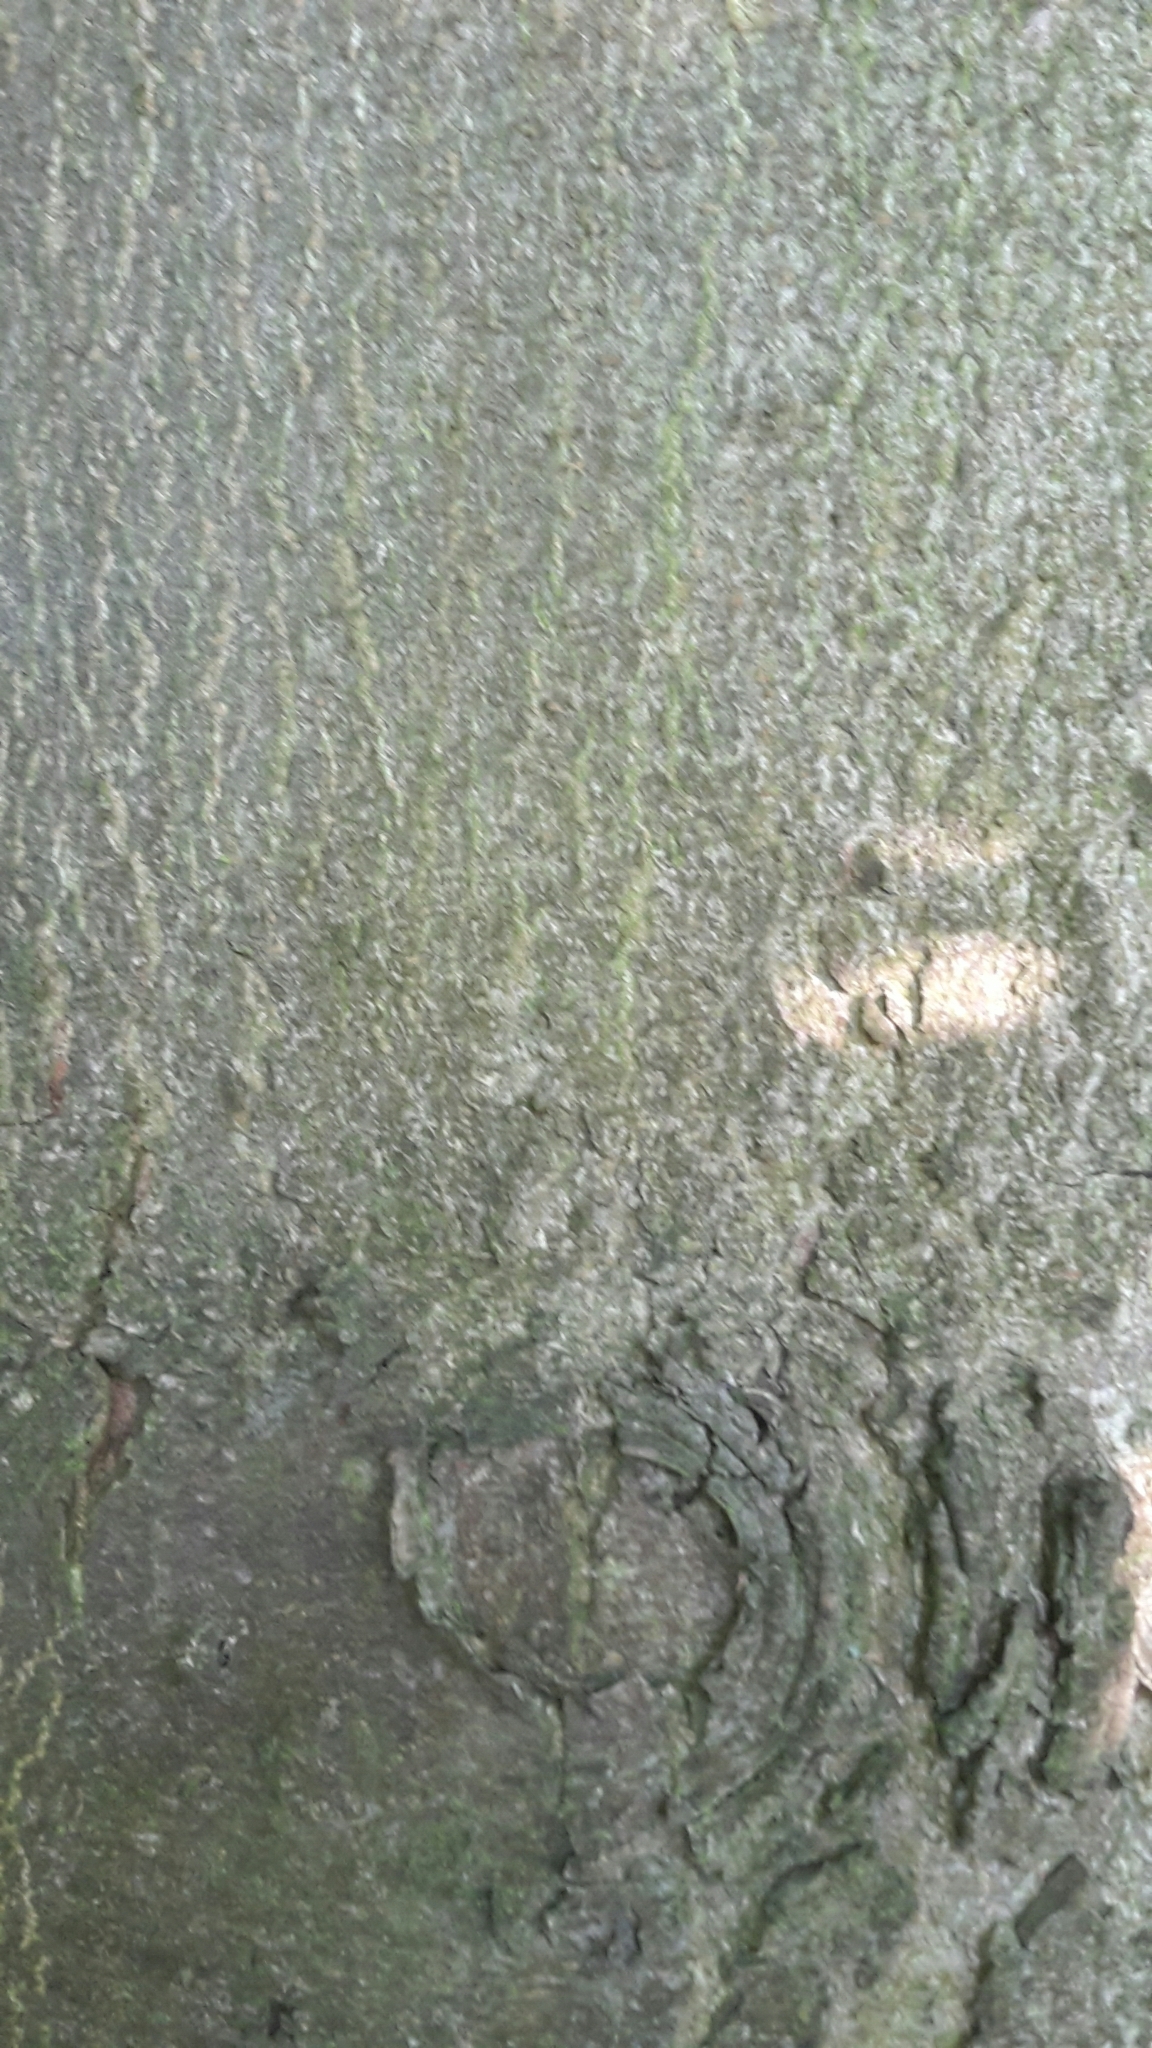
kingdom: Plantae
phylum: Tracheophyta
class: Magnoliopsida
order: Sapindales
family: Sapindaceae
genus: Aesculus
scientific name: Aesculus hippocastanum
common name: Horse-chestnut
